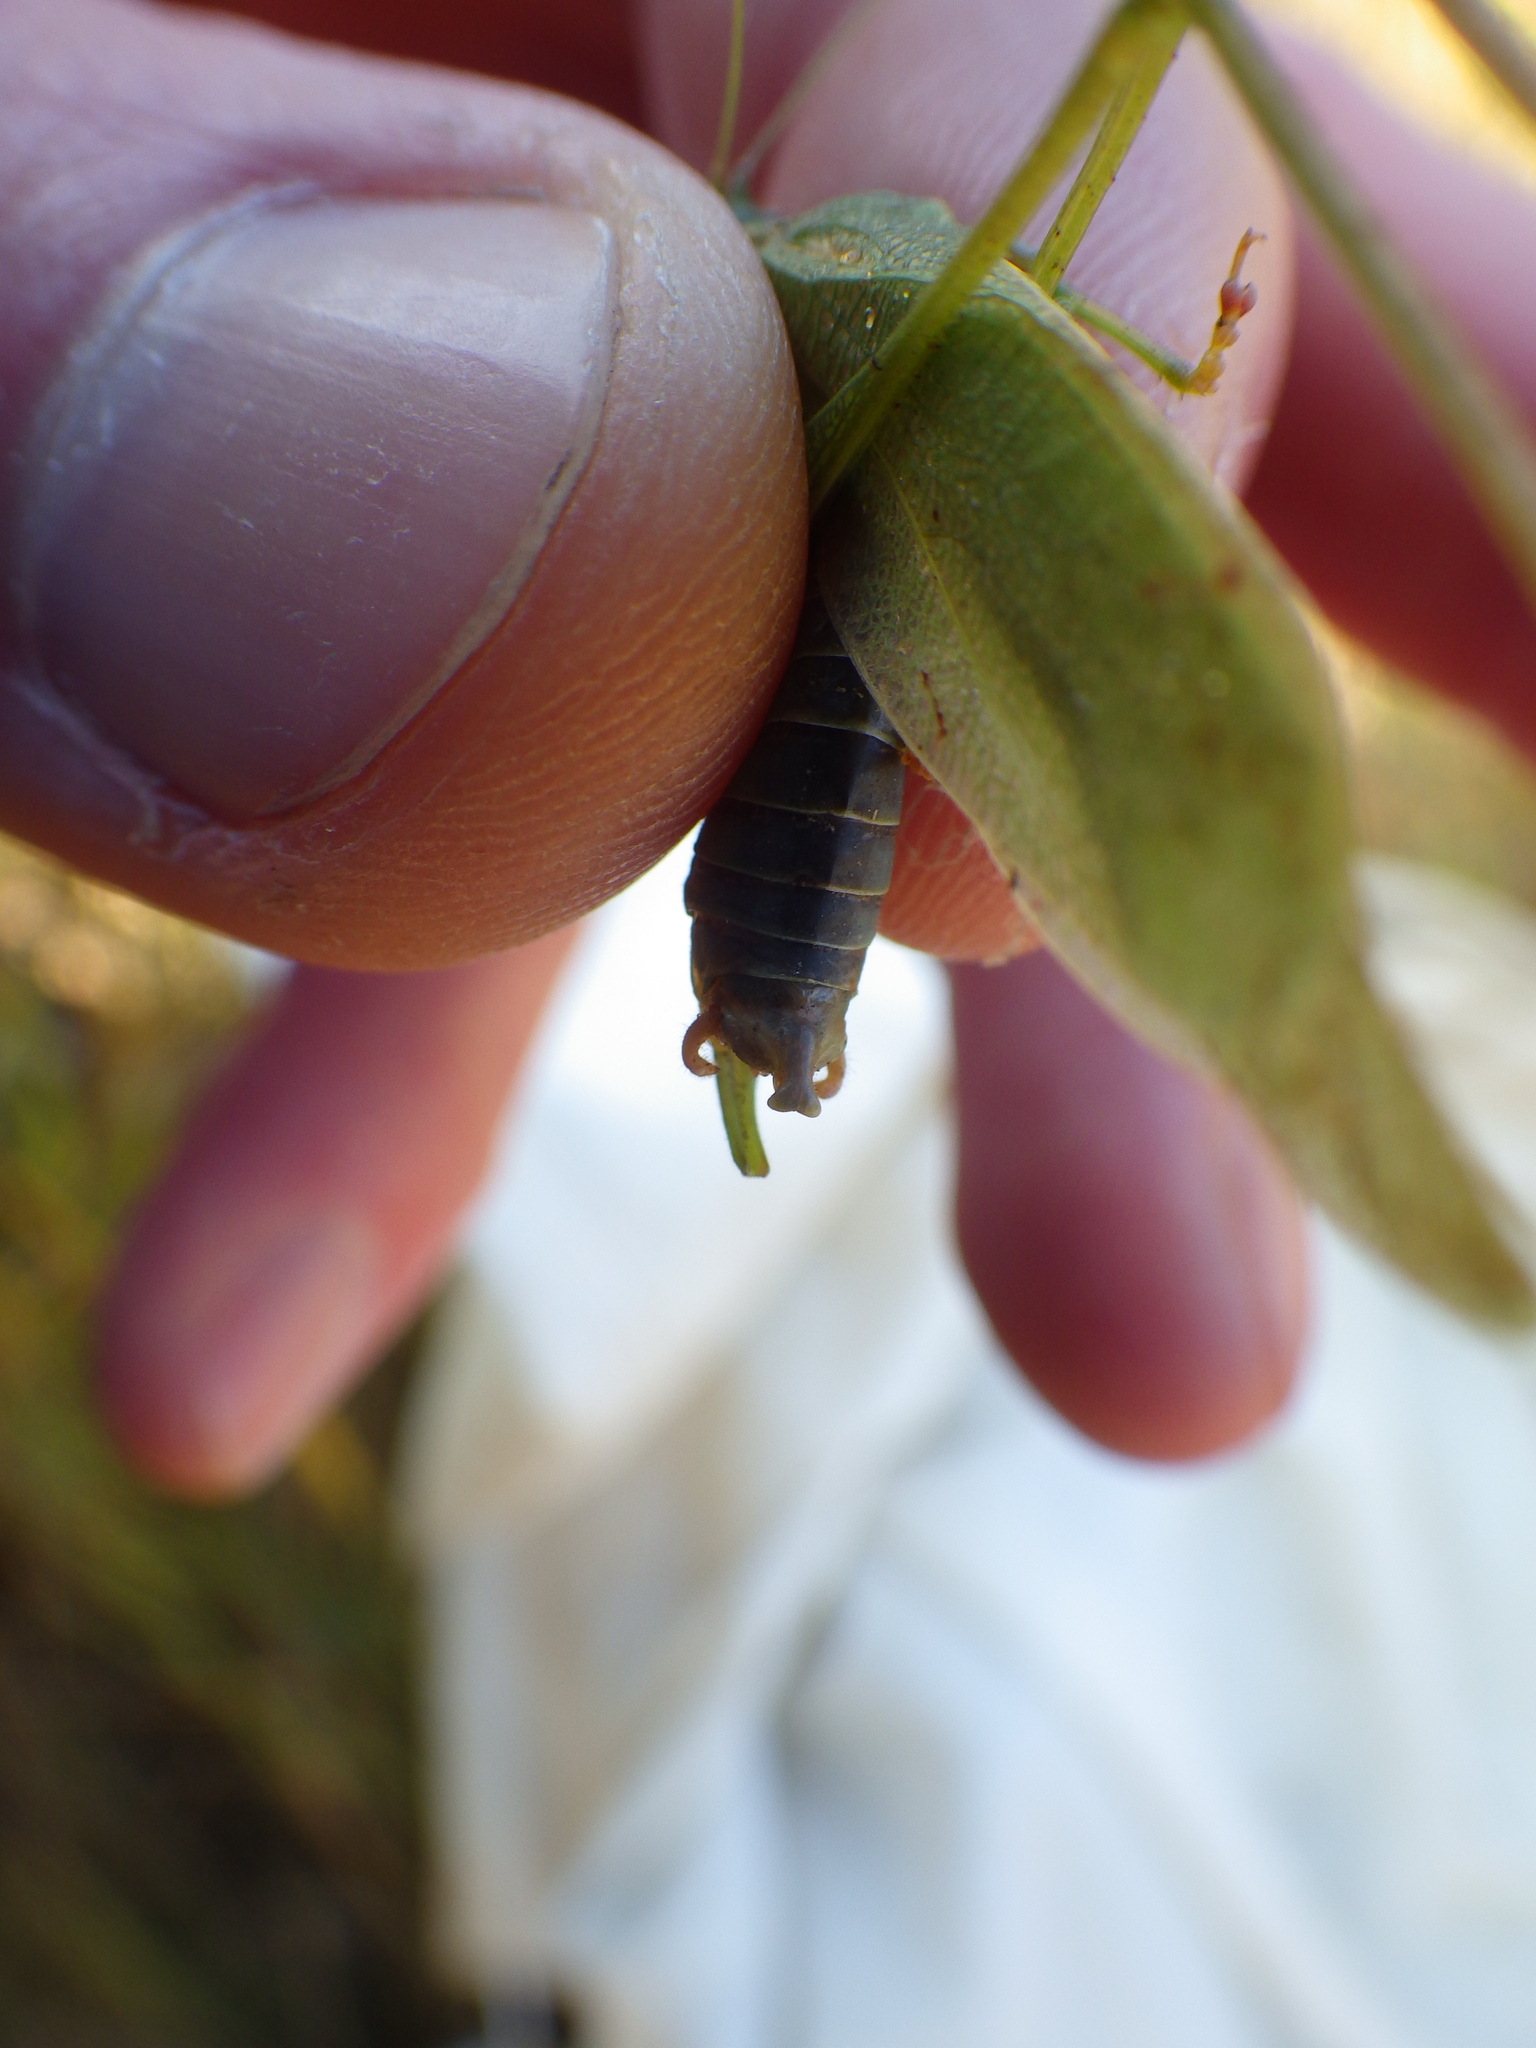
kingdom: Animalia
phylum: Arthropoda
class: Insecta
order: Orthoptera
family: Tettigoniidae
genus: Scudderia
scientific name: Scudderia pistillata
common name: Broad-winged bush-katydid
